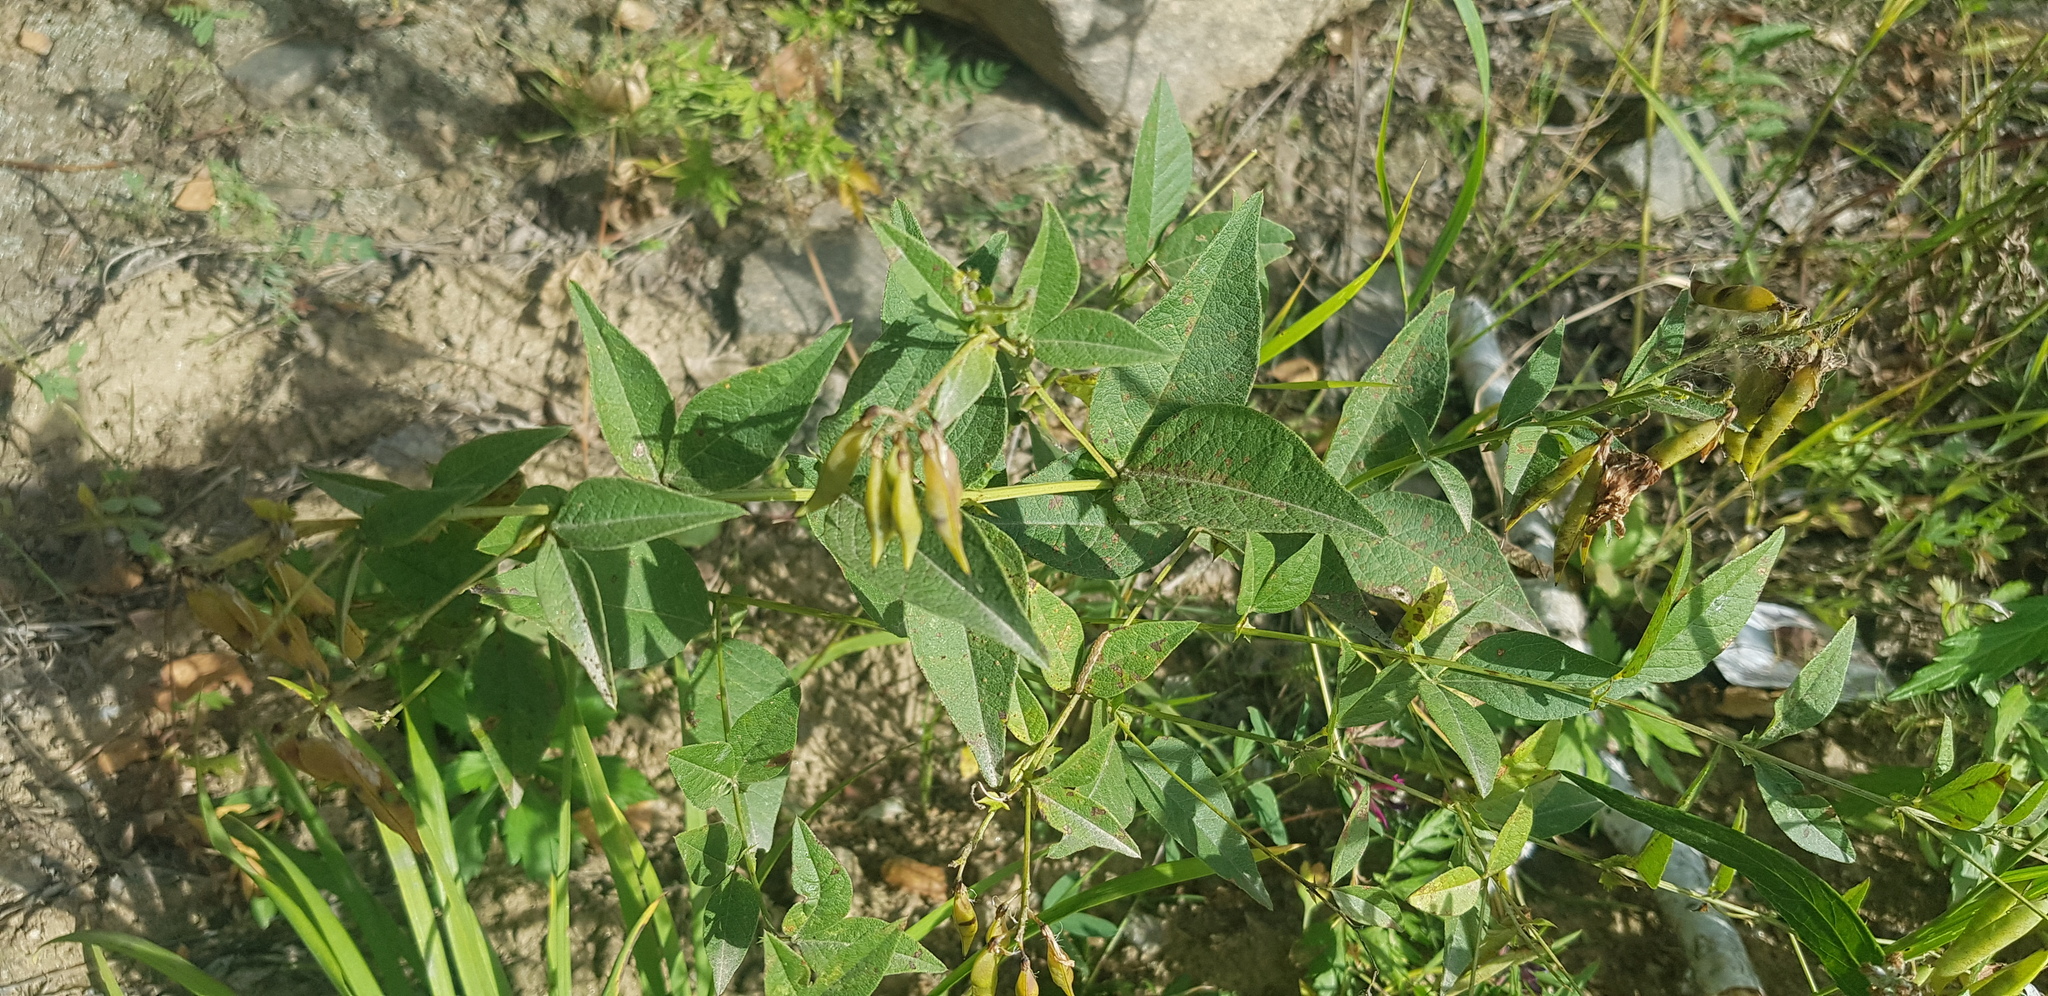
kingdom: Plantae
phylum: Tracheophyta
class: Magnoliopsida
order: Fabales
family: Fabaceae
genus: Vicia
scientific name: Vicia unijuga
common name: Two-leaf vetch
